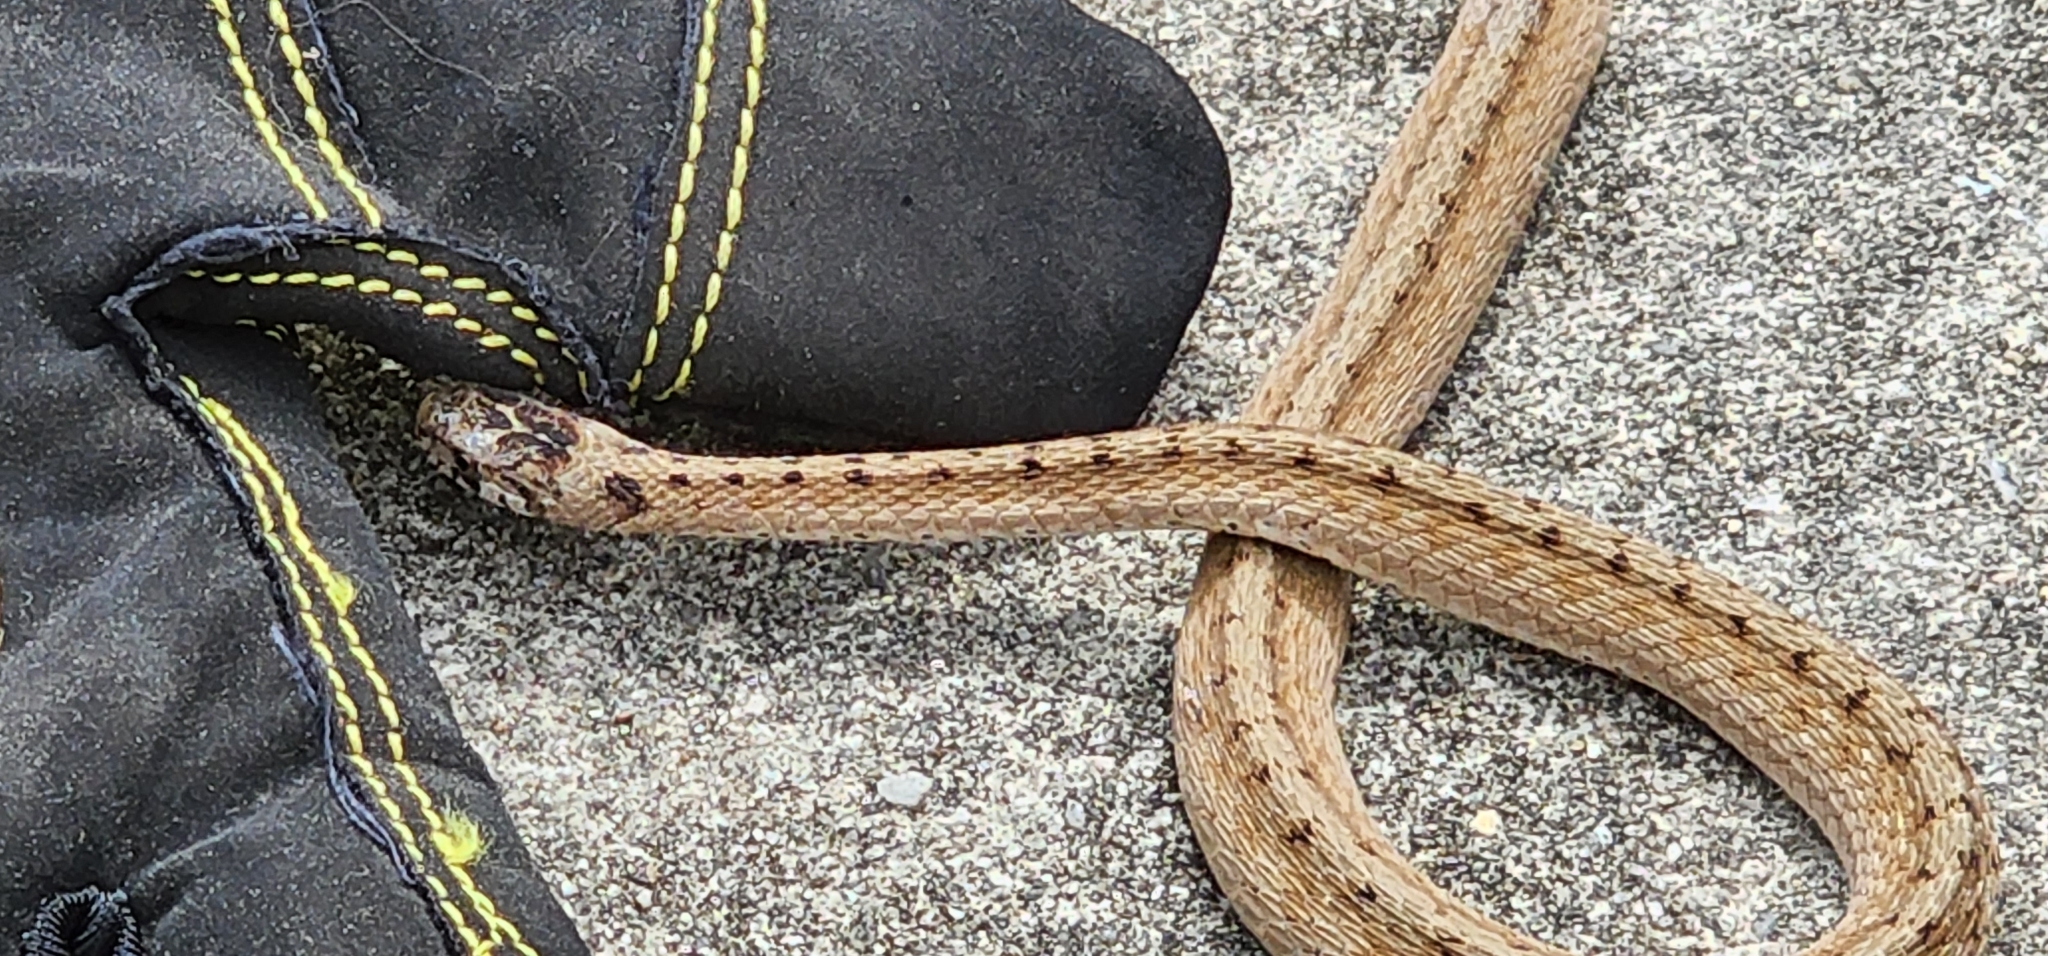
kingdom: Animalia
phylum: Chordata
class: Squamata
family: Colubridae
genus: Storeria
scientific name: Storeria dekayi
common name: (dekay’s) brown snake
